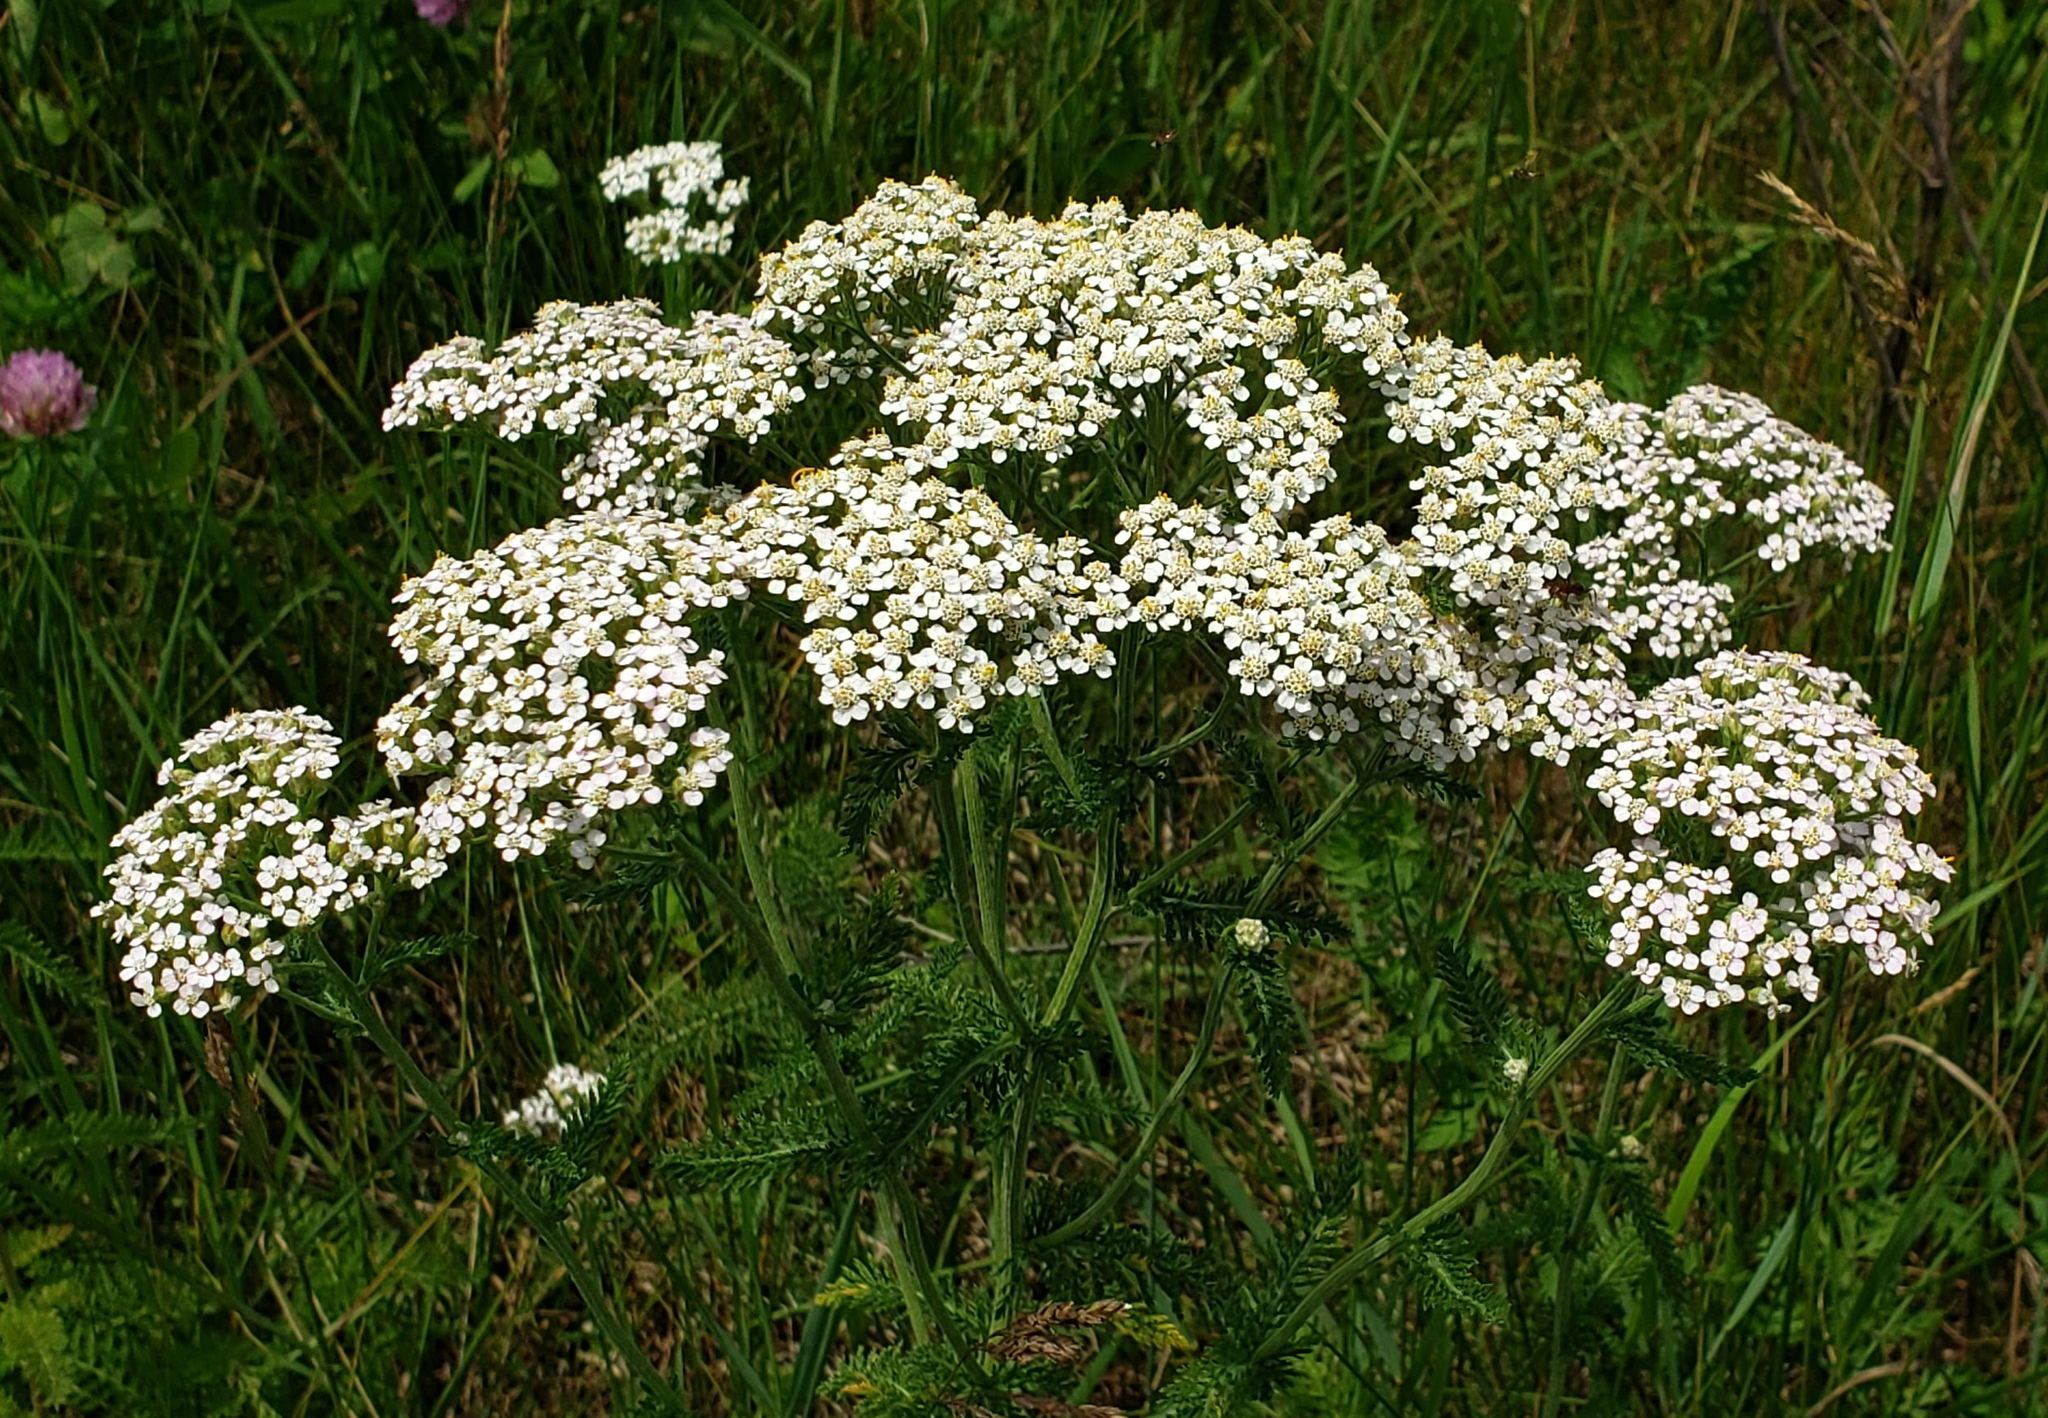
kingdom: Plantae
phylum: Tracheophyta
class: Magnoliopsida
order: Asterales
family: Asteraceae
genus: Achillea
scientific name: Achillea millefolium
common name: Yarrow
